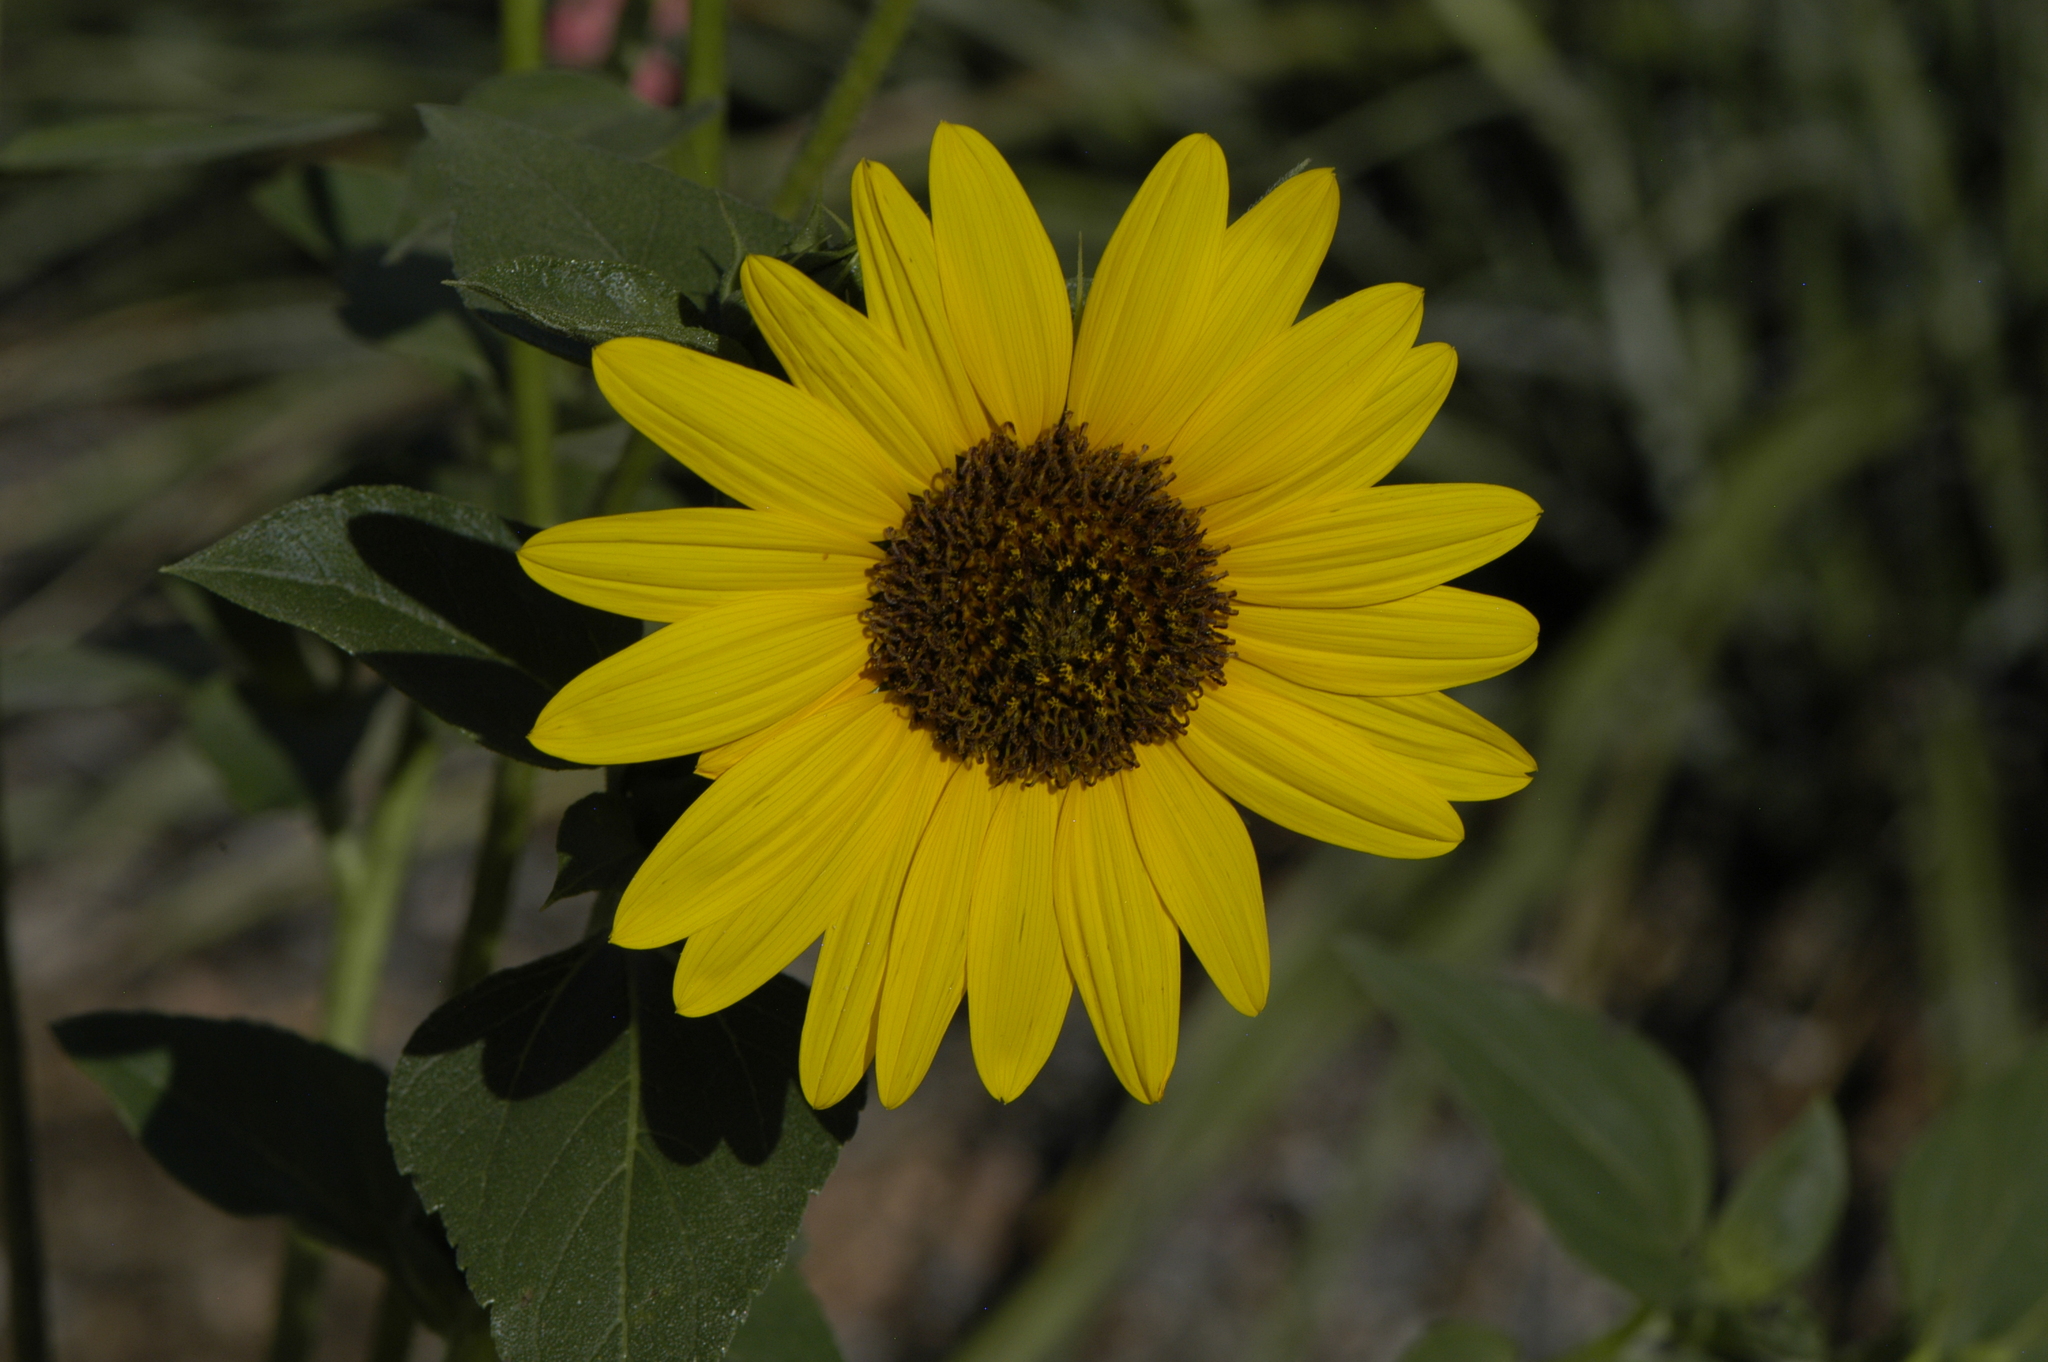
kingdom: Plantae
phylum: Tracheophyta
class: Magnoliopsida
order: Asterales
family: Asteraceae
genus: Helianthus
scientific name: Helianthus annuus
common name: Sunflower
